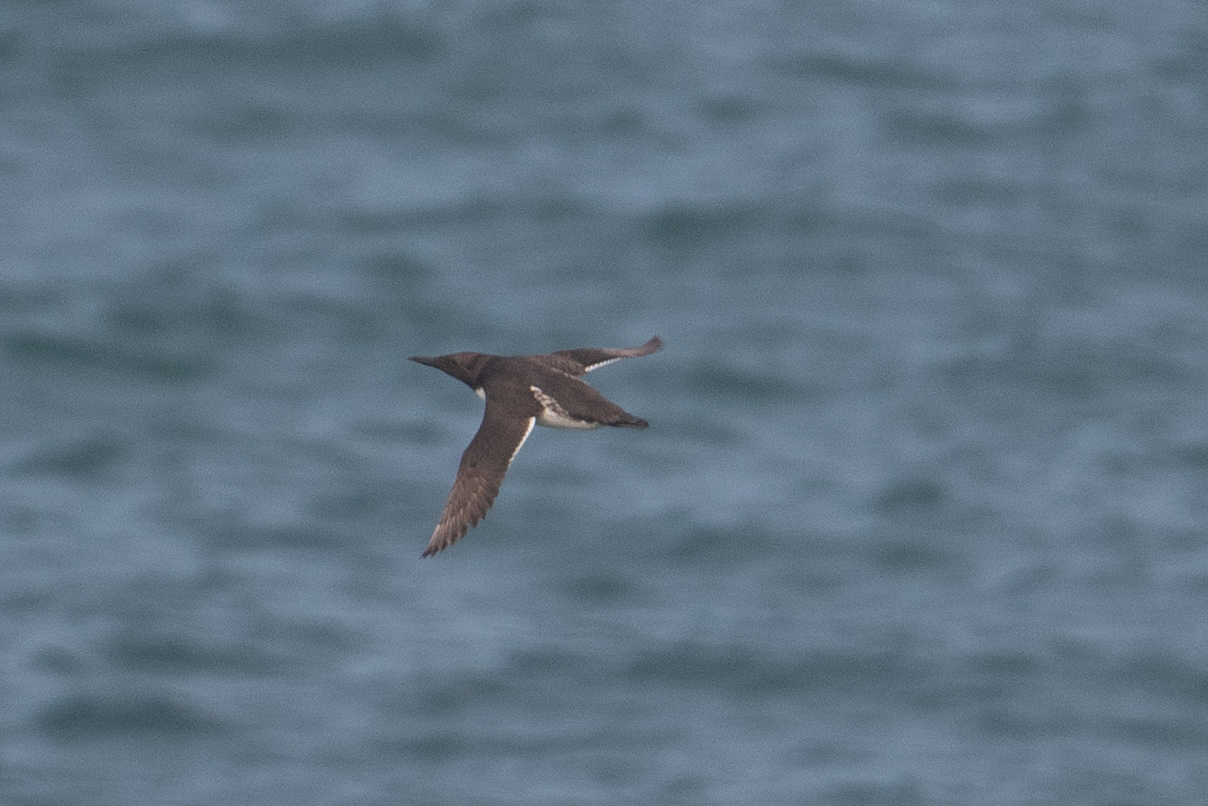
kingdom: Animalia
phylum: Chordata
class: Aves
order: Charadriiformes
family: Alcidae
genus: Uria
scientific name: Uria aalge
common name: Common murre
